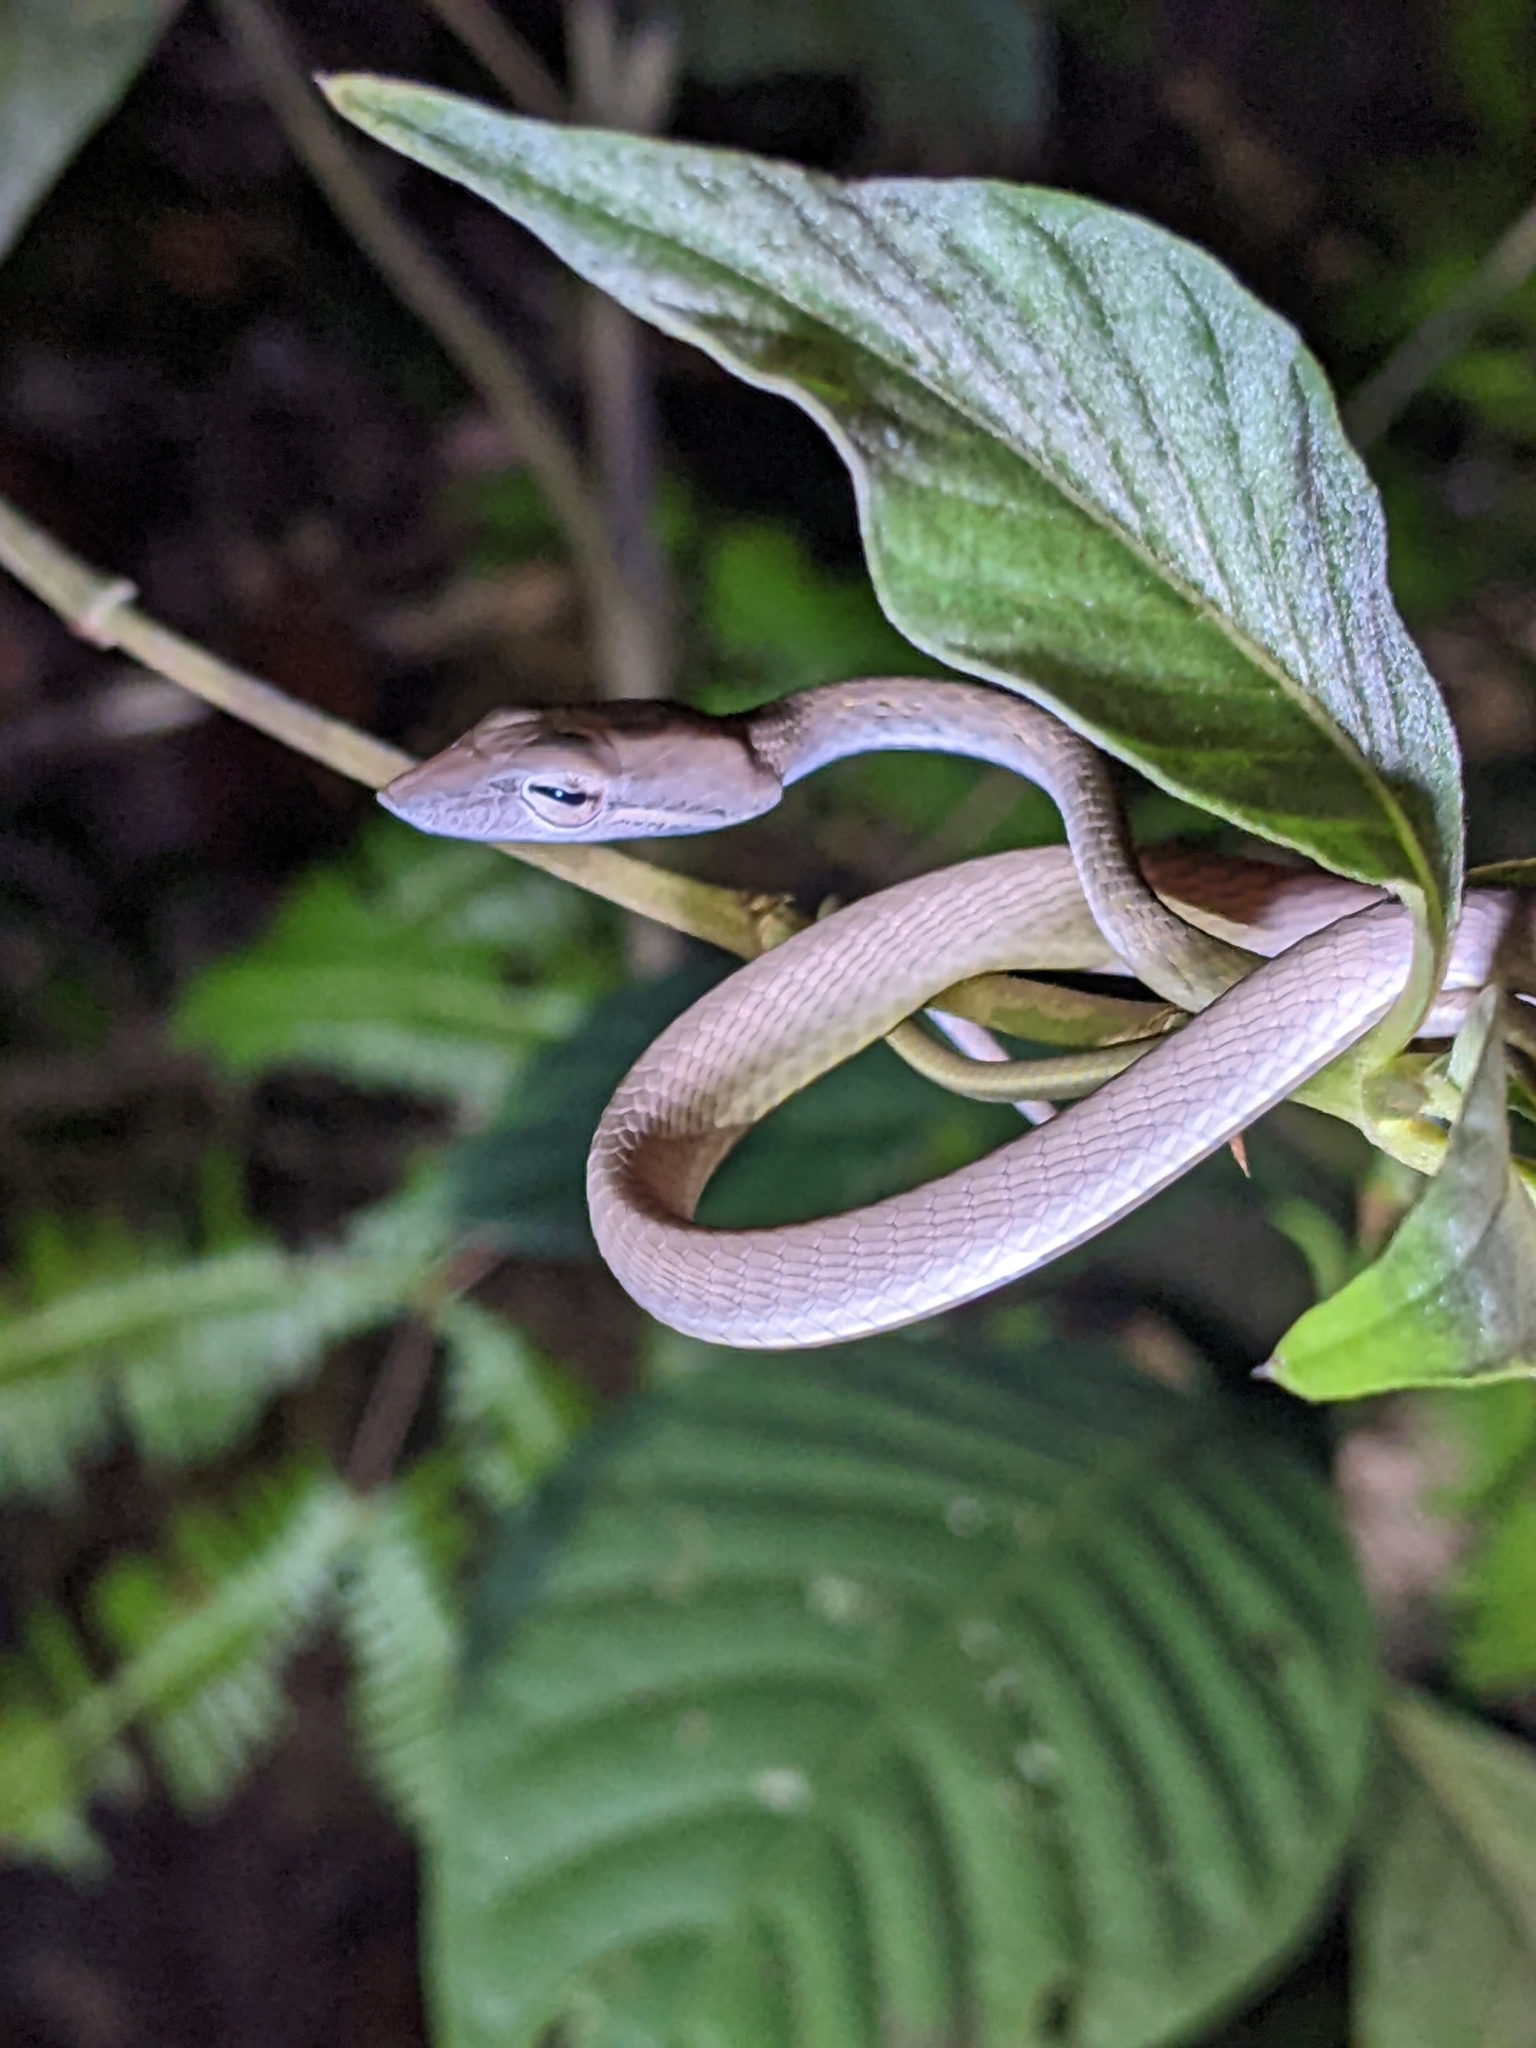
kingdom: Animalia
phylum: Chordata
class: Squamata
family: Colubridae
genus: Ahaetulla
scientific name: Ahaetulla prasina
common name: Oriental whip snake
